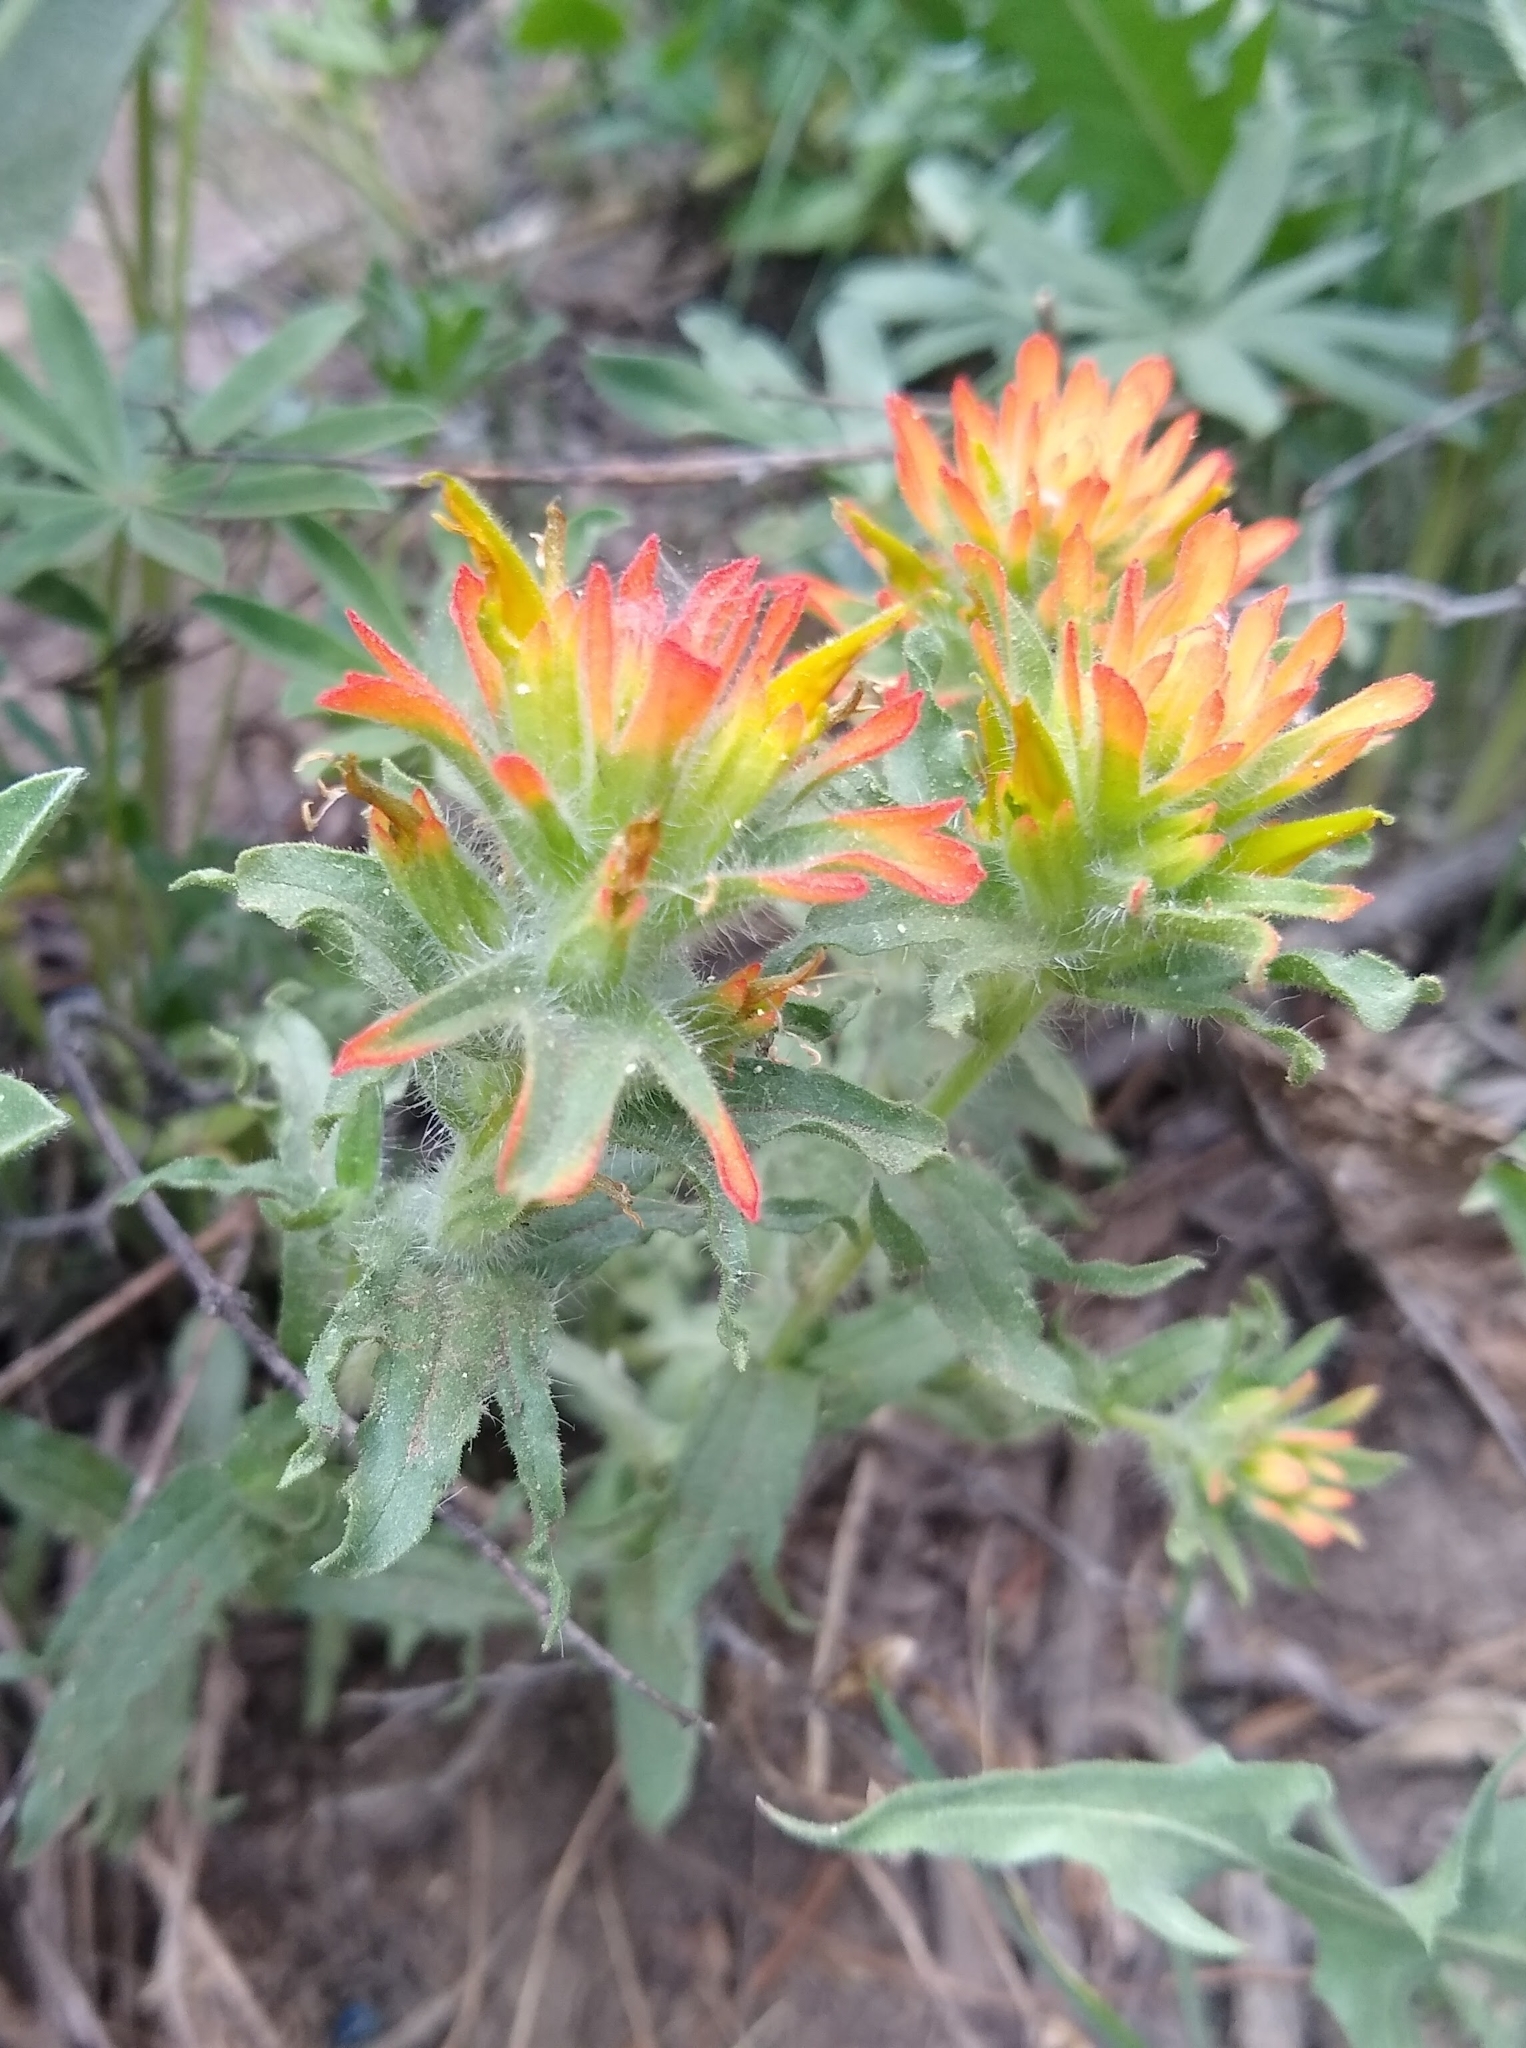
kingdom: Plantae
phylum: Tracheophyta
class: Magnoliopsida
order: Lamiales
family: Orobanchaceae
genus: Castilleja
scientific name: Castilleja applegatei
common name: Wavy-leaf paintbrush
